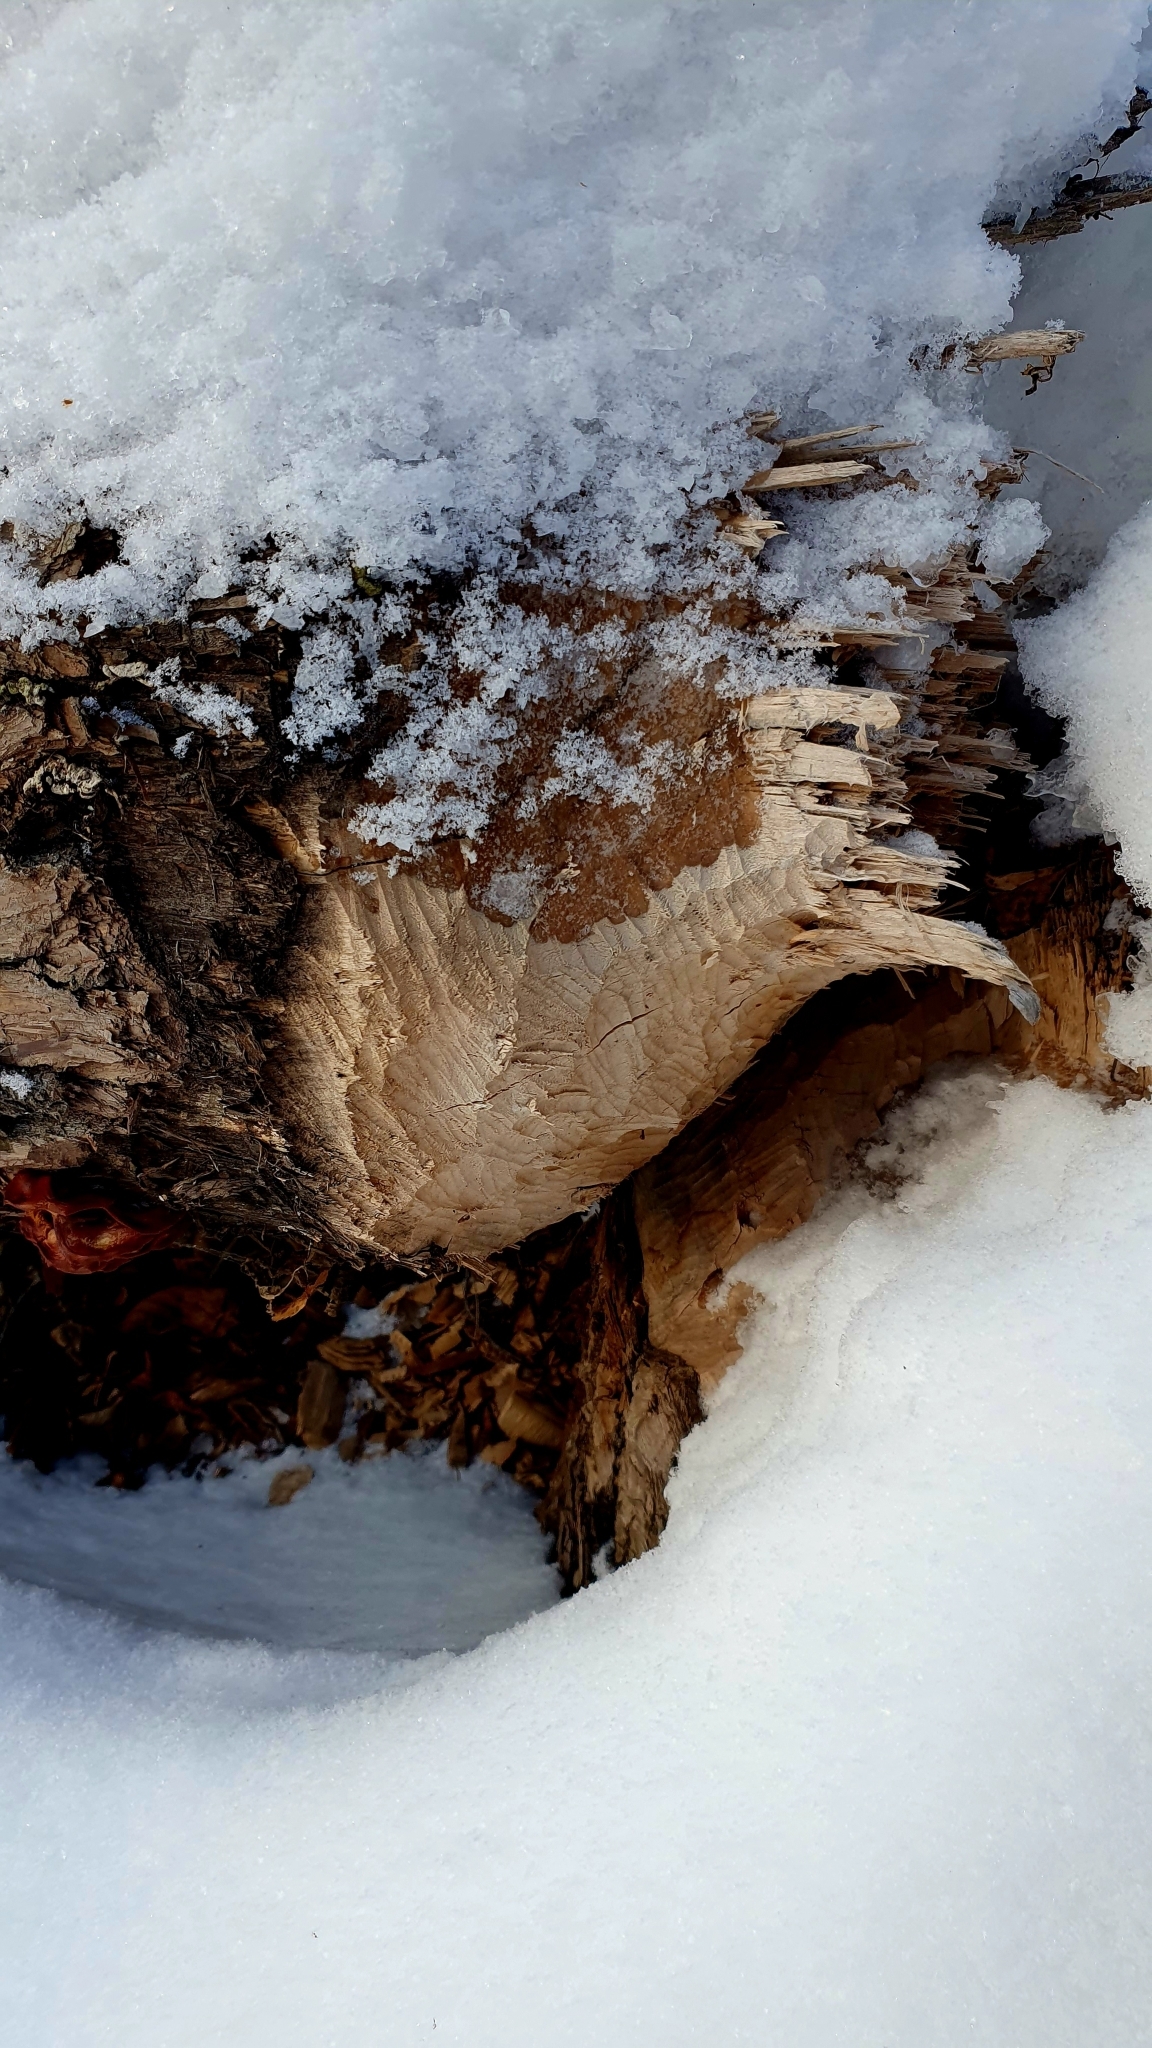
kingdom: Animalia
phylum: Chordata
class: Mammalia
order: Rodentia
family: Castoridae
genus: Castor
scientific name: Castor fiber
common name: Eurasian beaver
